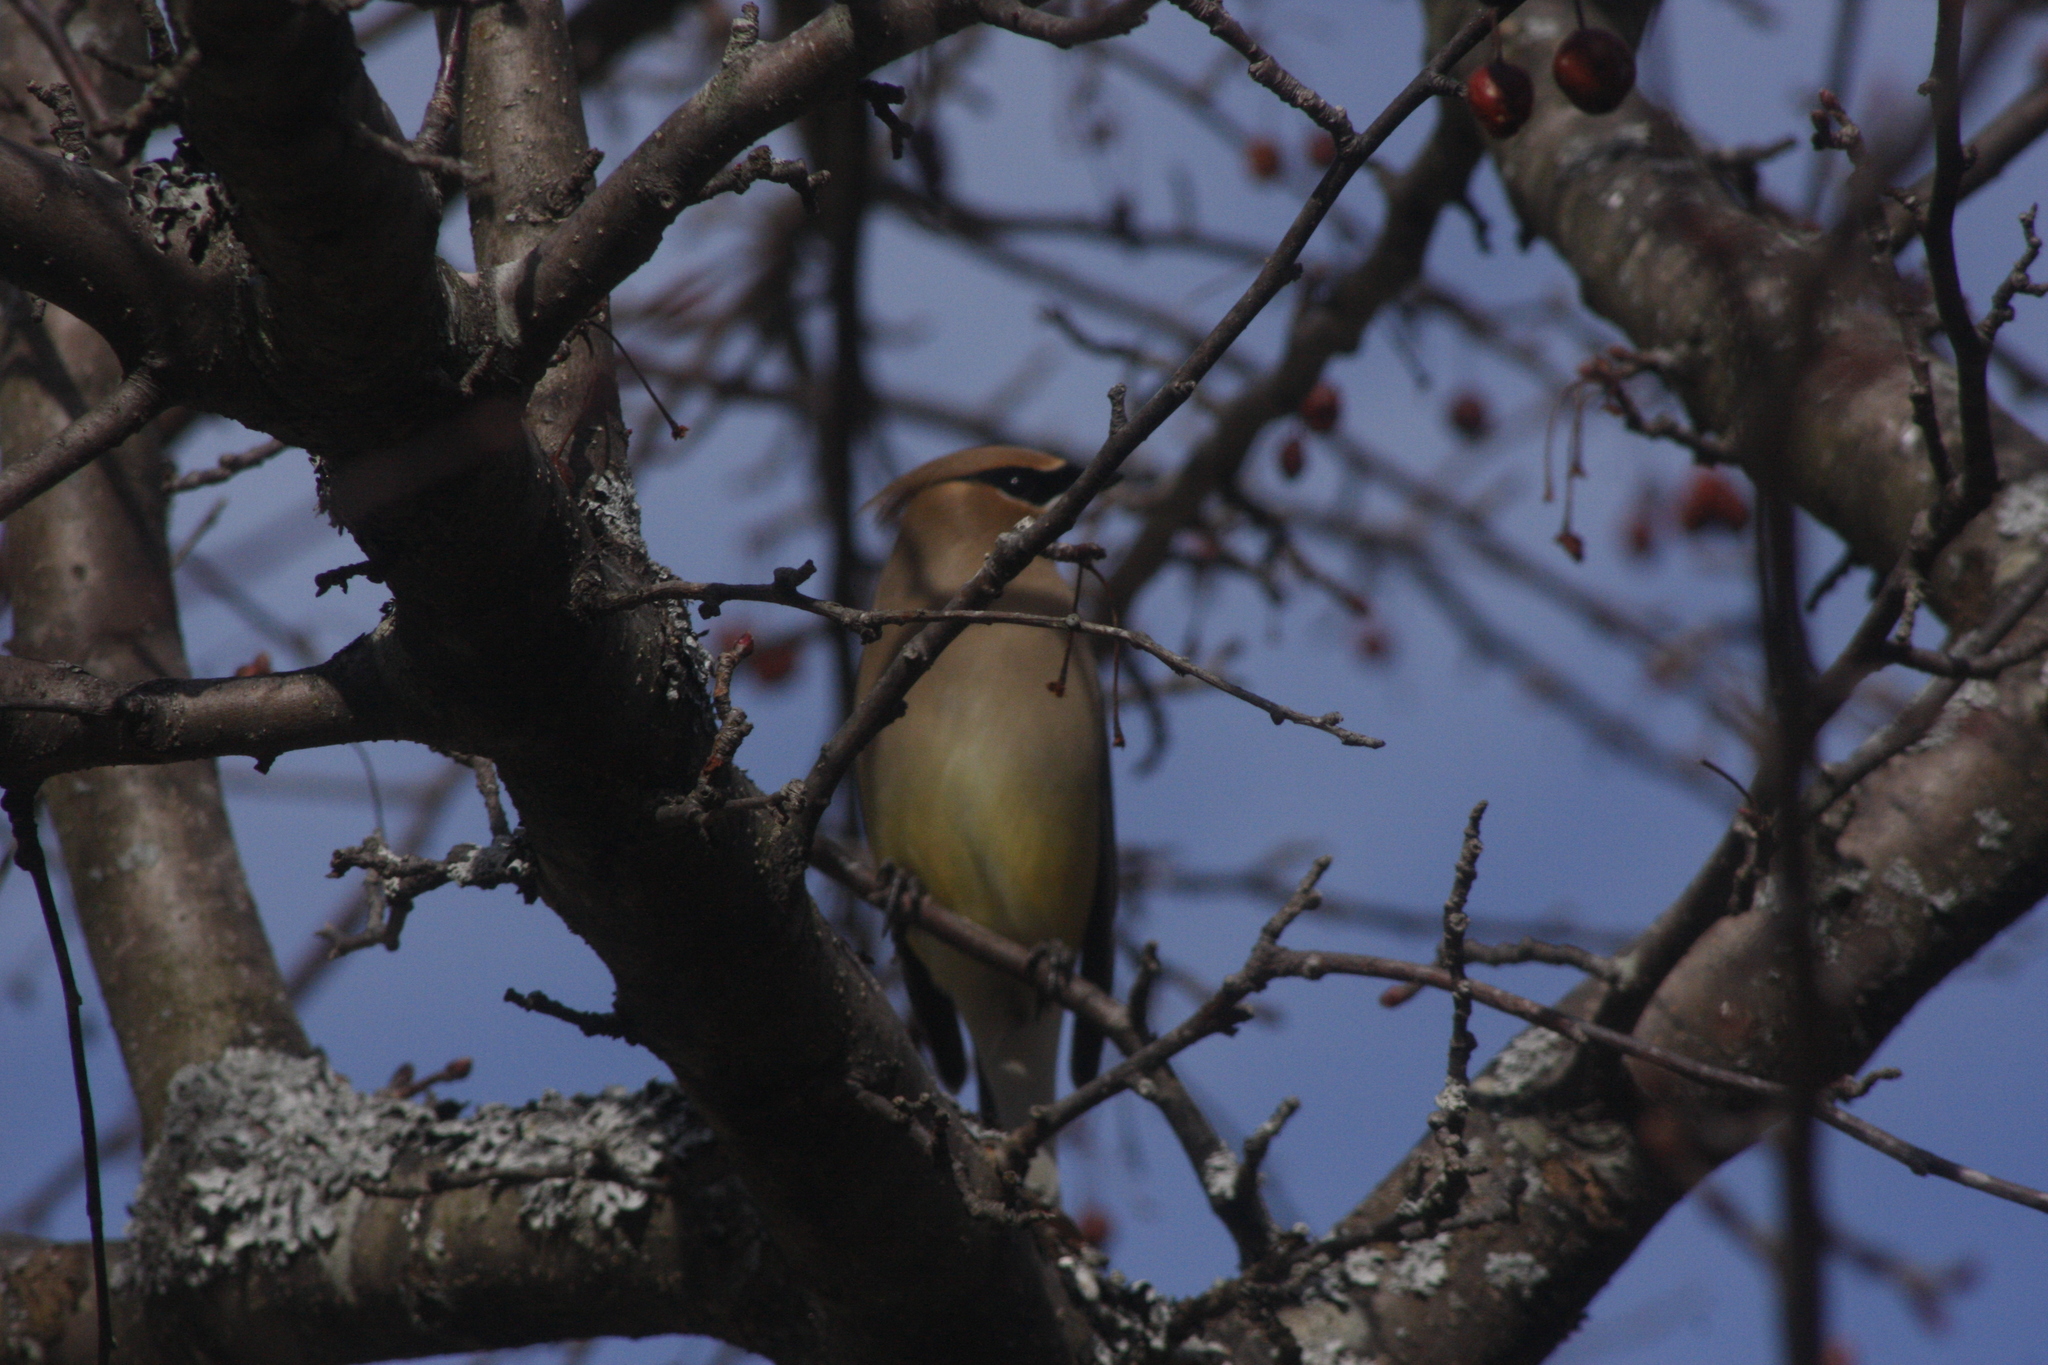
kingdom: Animalia
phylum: Chordata
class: Aves
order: Passeriformes
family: Bombycillidae
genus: Bombycilla
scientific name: Bombycilla cedrorum
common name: Cedar waxwing
